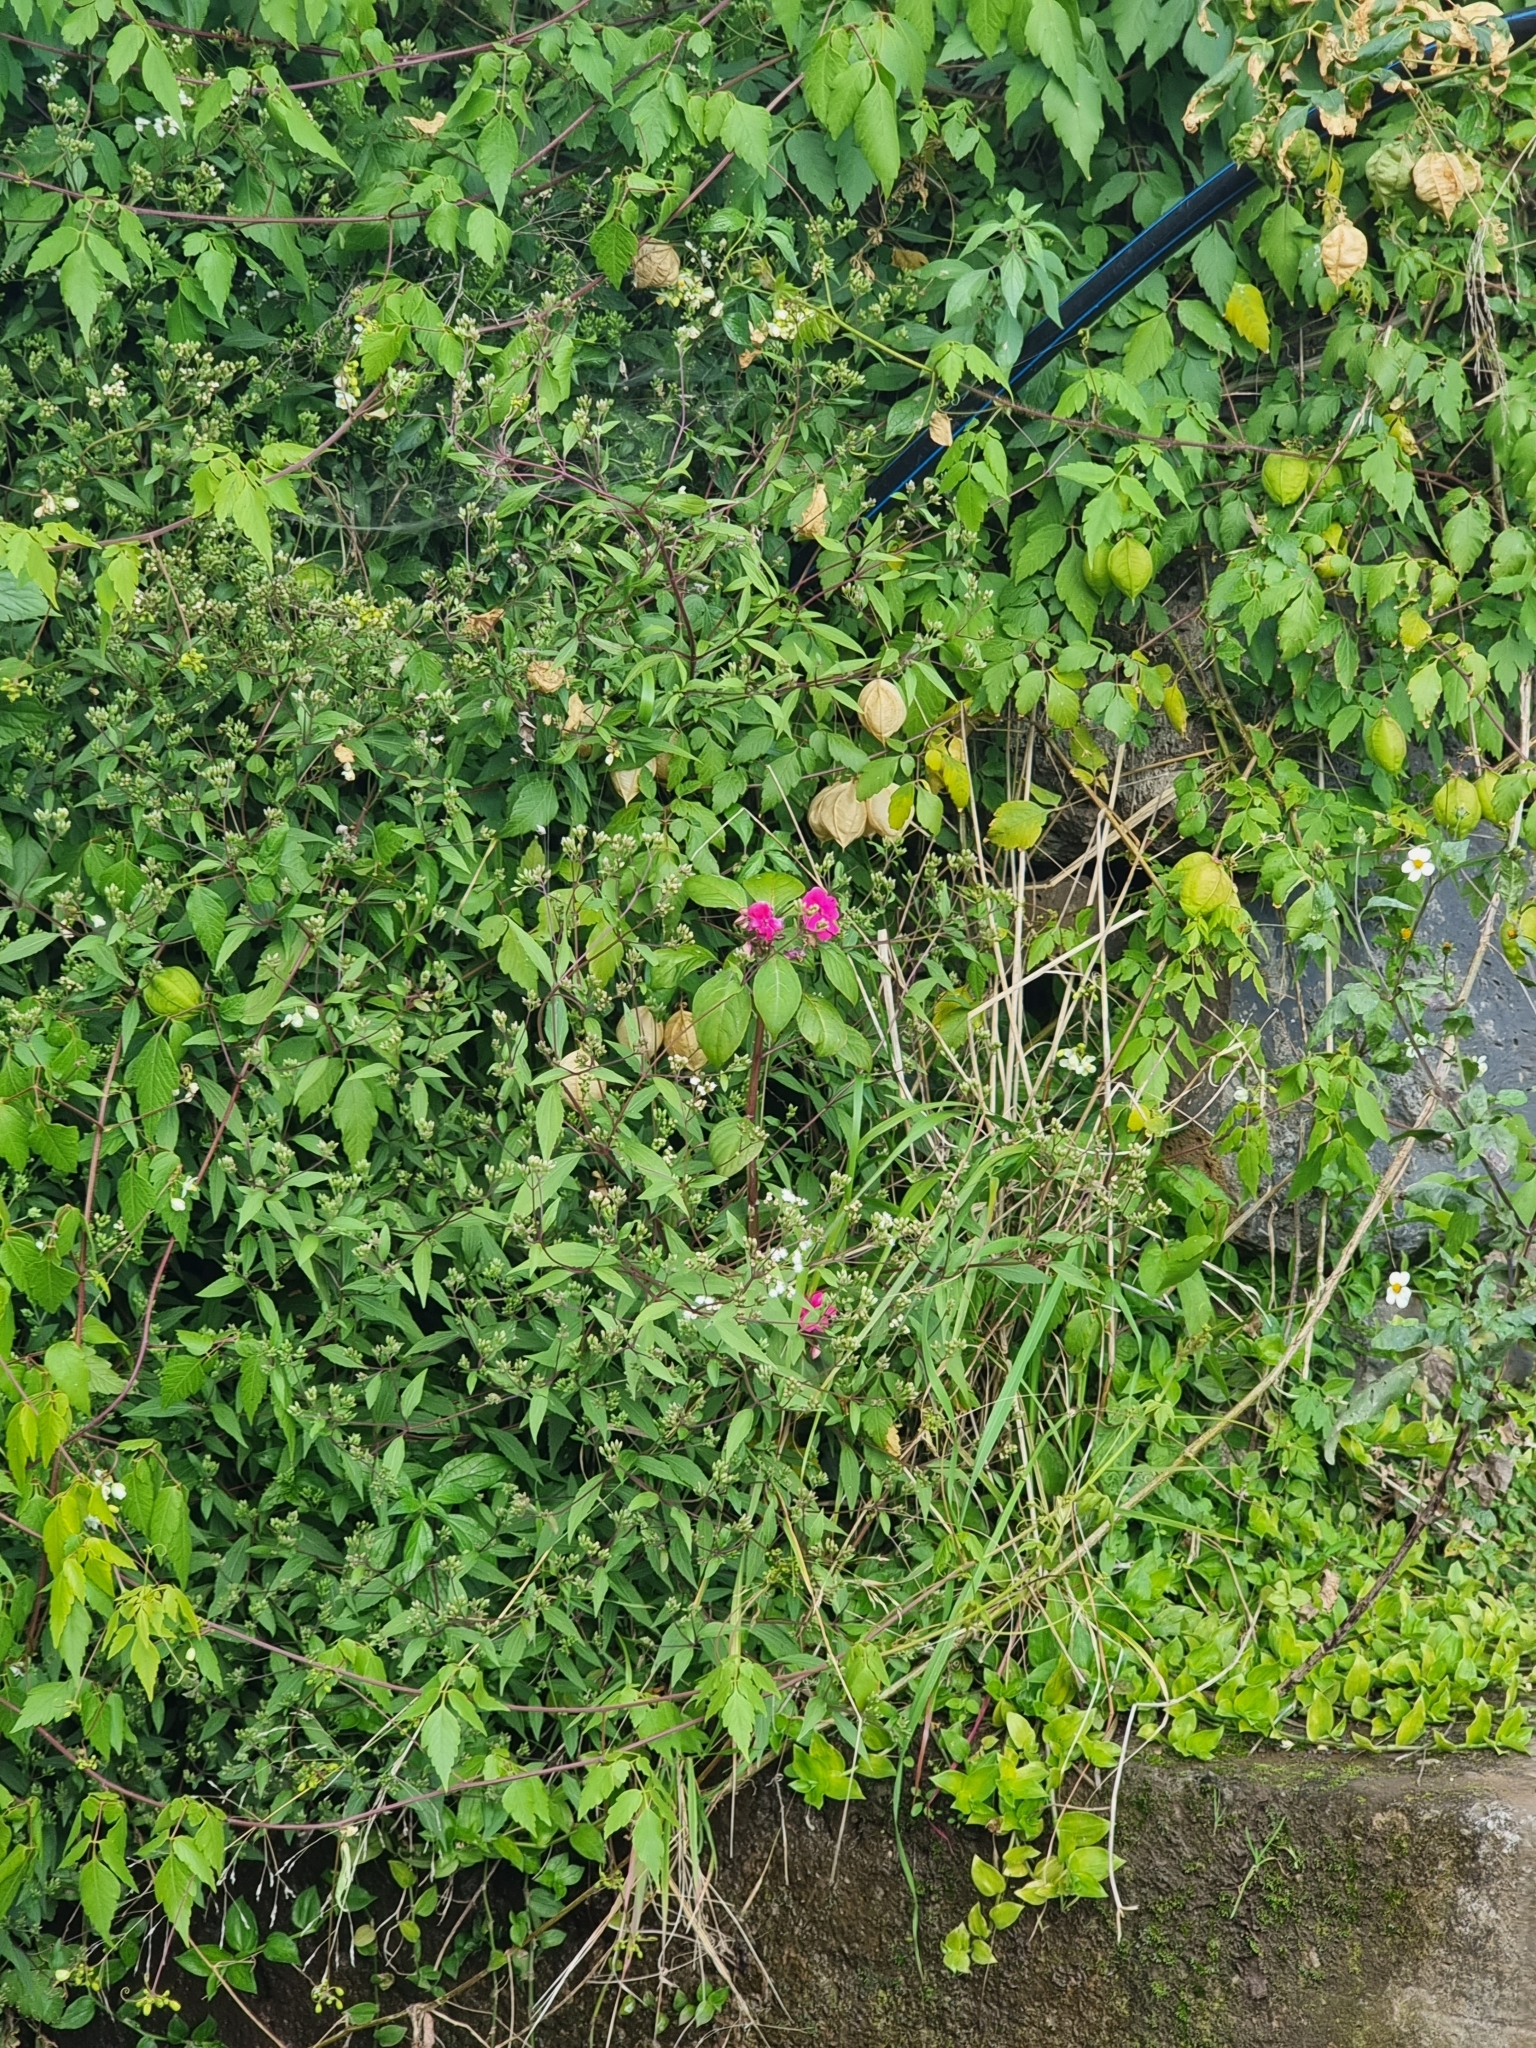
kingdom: Plantae
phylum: Tracheophyta
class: Magnoliopsida
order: Ericales
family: Balsaminaceae
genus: Impatiens
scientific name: Impatiens walleriana
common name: Buzzy lizzy
